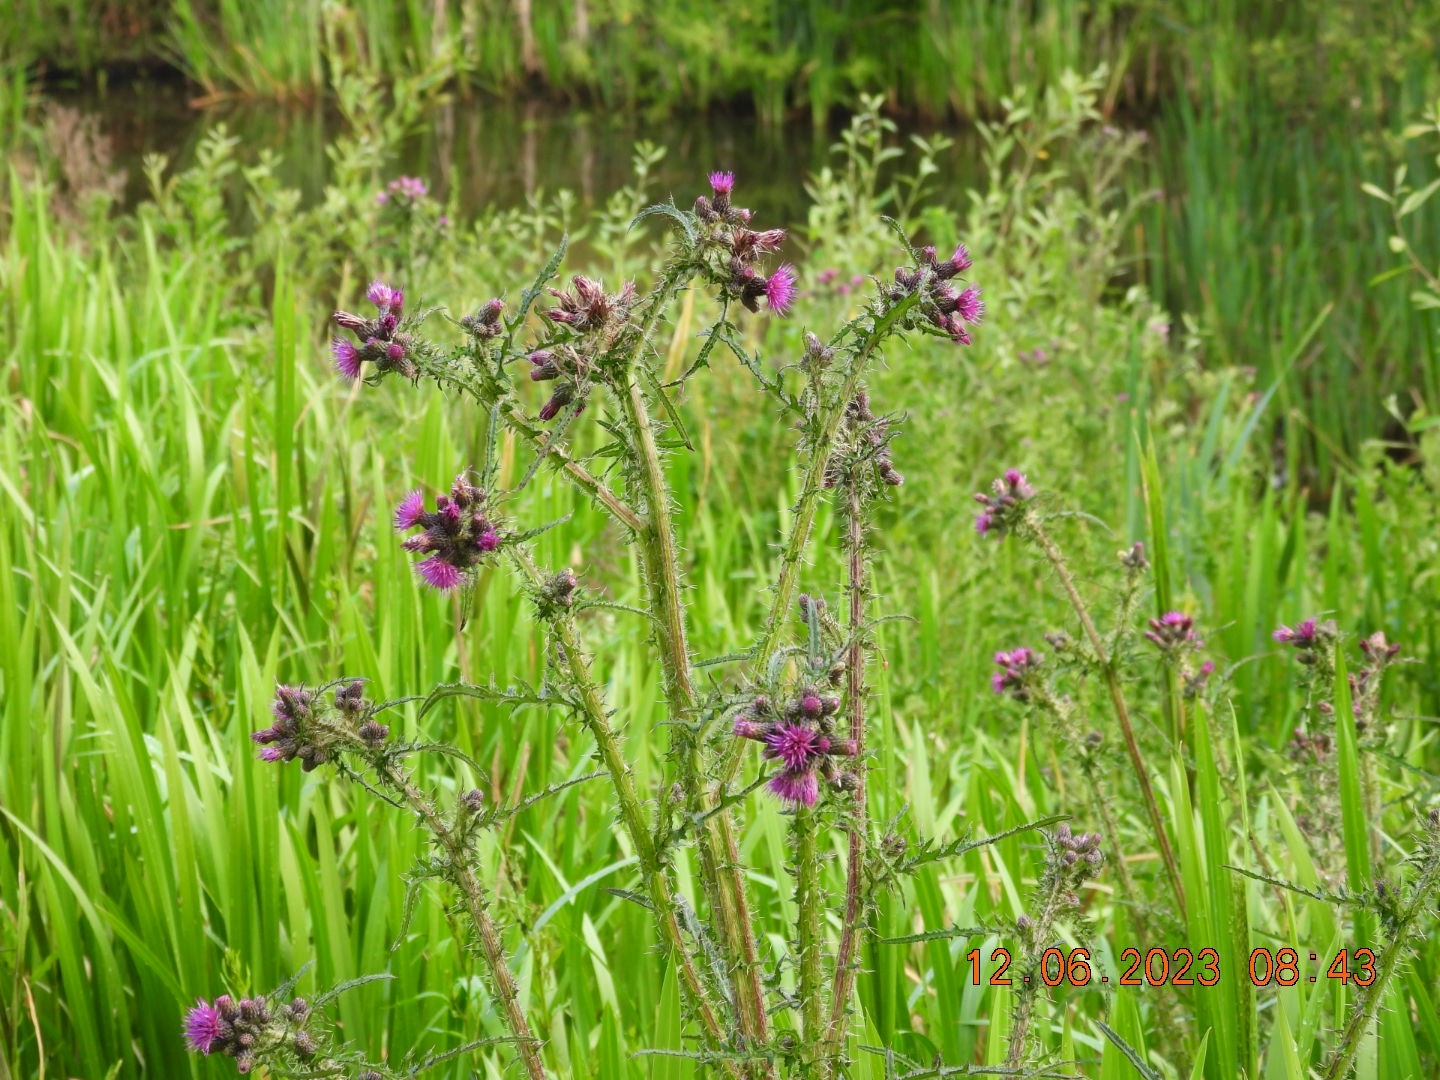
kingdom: Plantae
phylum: Tracheophyta
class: Magnoliopsida
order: Asterales
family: Asteraceae
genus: Cirsium
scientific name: Cirsium palustre
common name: Marsh thistle
